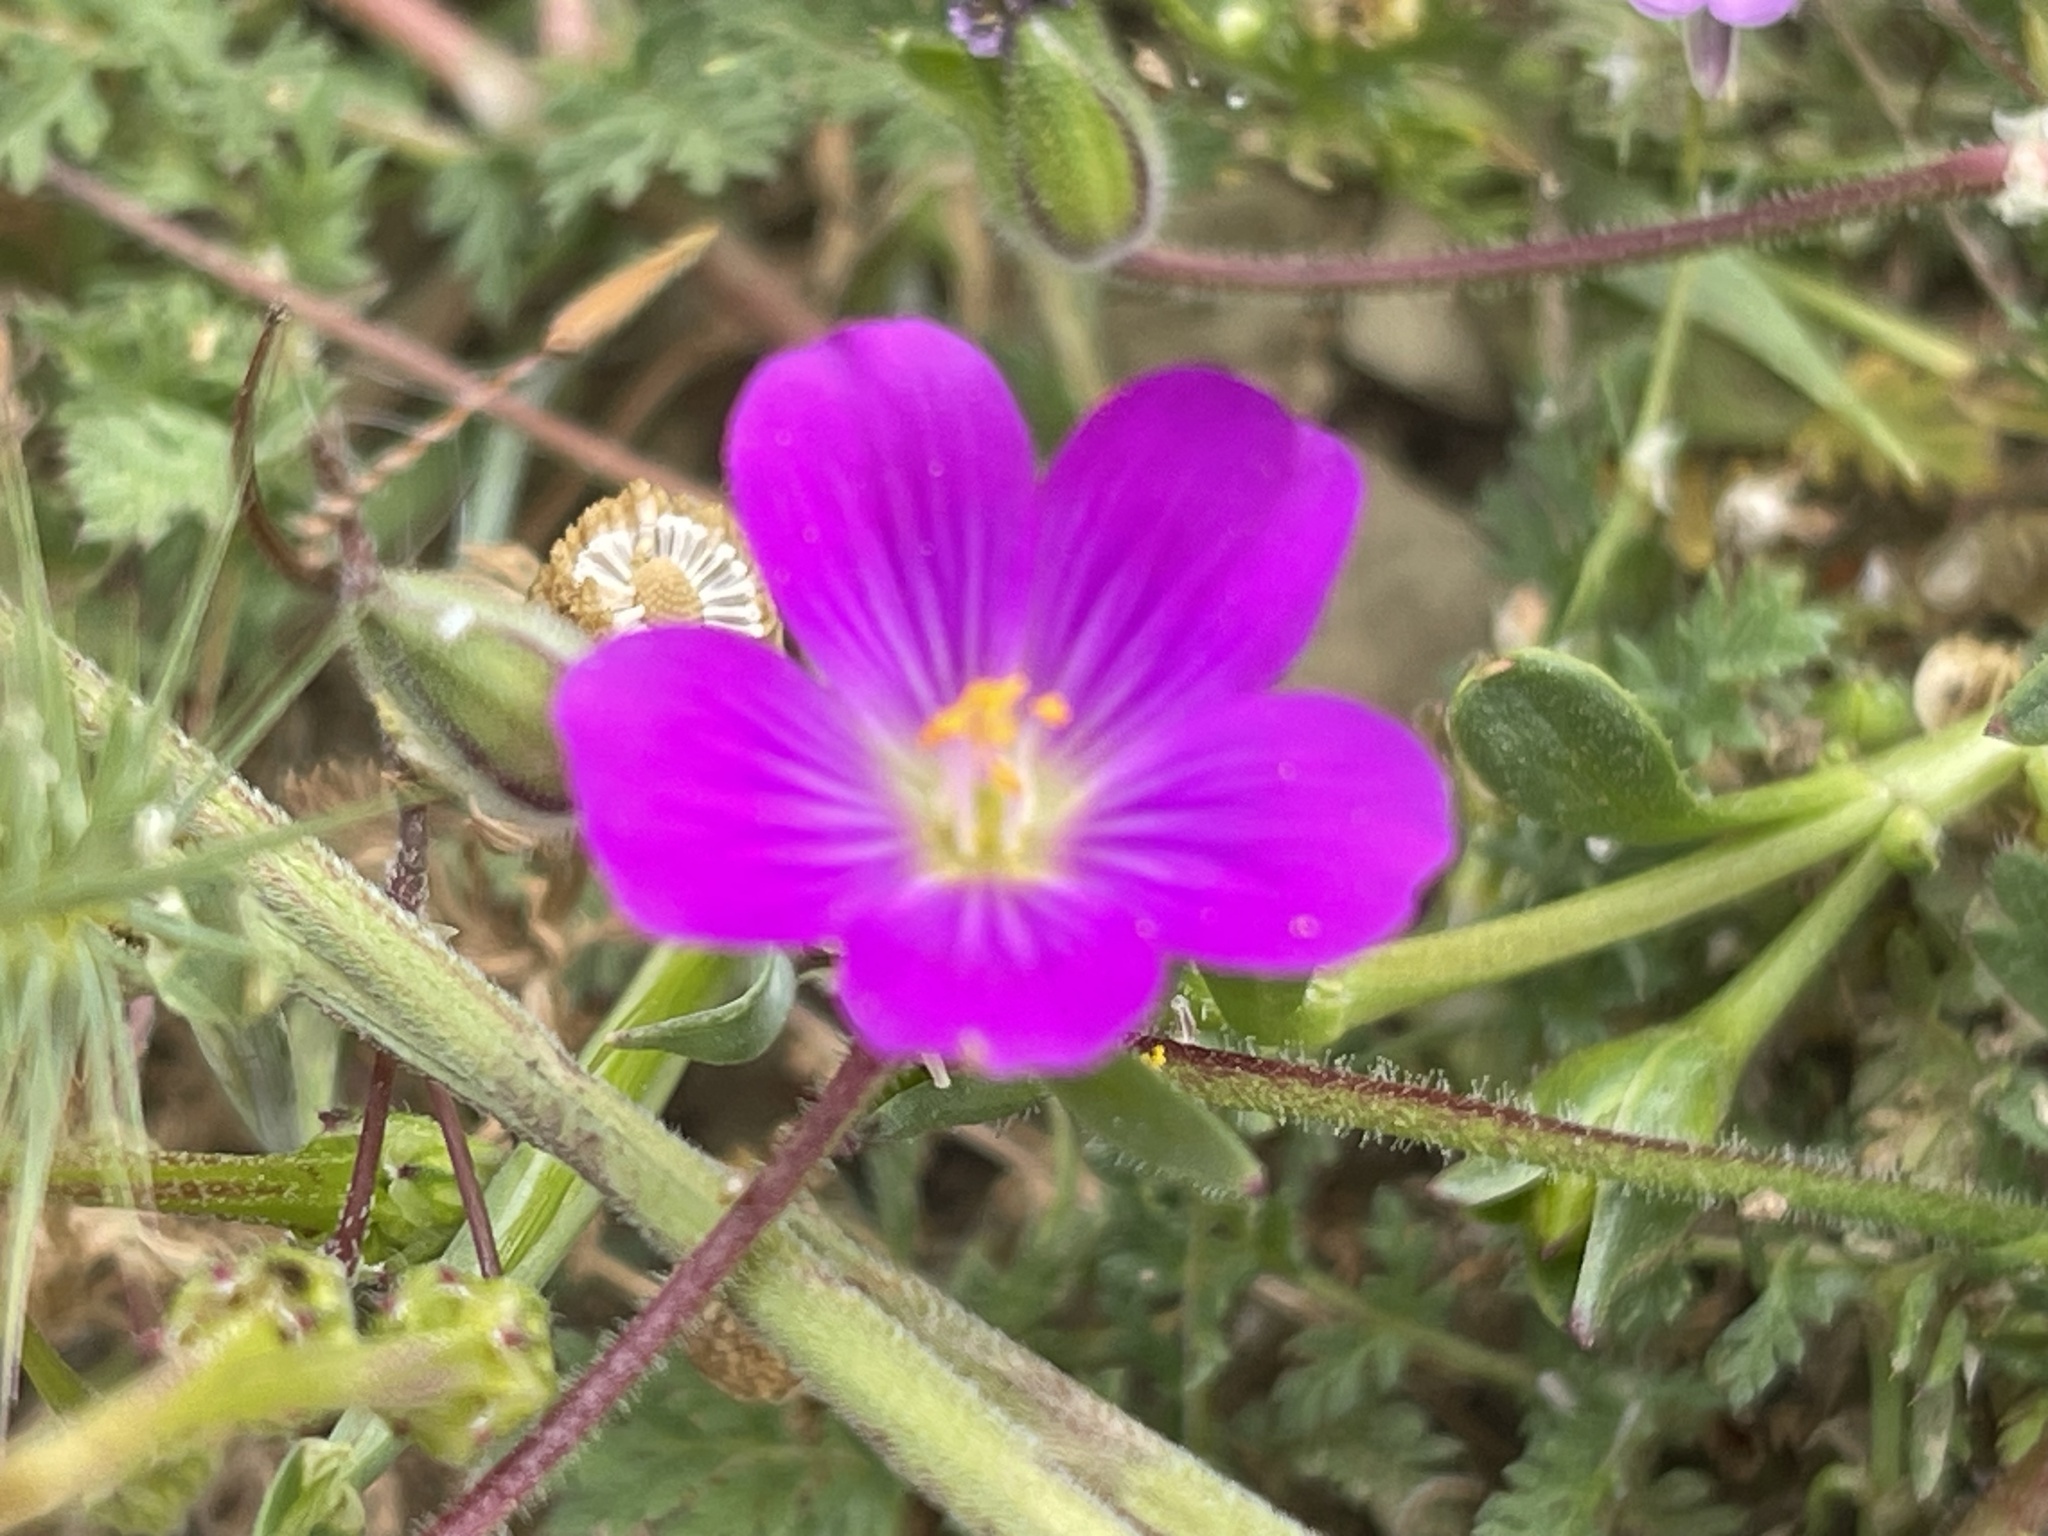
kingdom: Plantae
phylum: Tracheophyta
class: Magnoliopsida
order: Caryophyllales
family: Montiaceae
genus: Calandrinia
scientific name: Calandrinia menziesii
